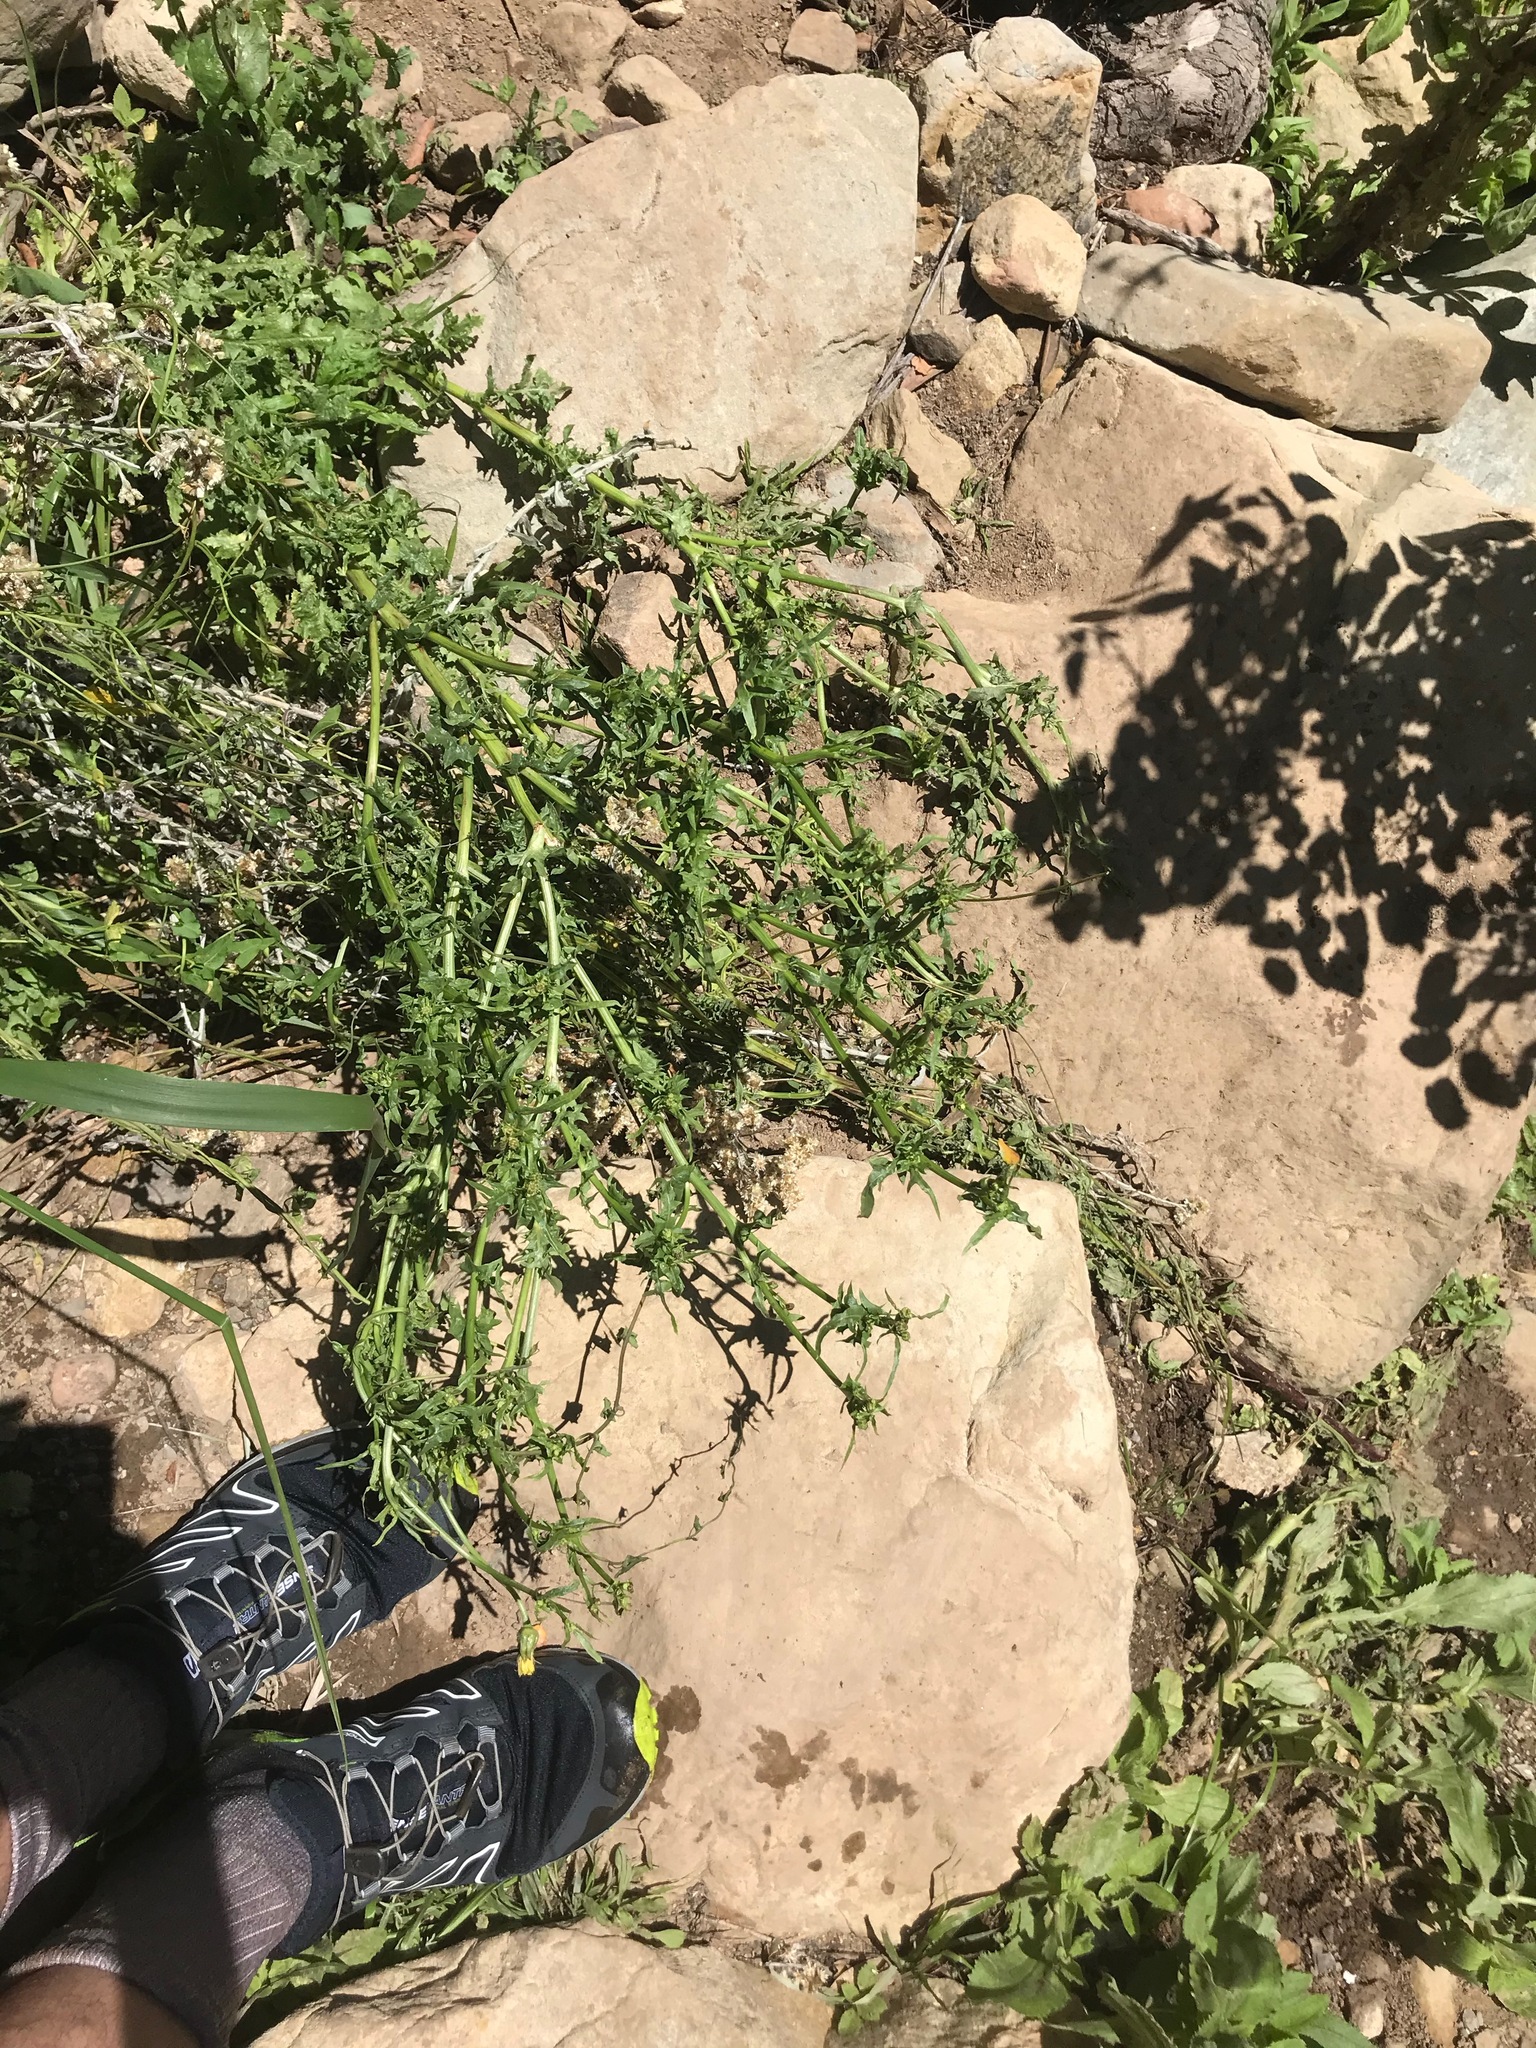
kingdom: Plantae
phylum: Tracheophyta
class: Magnoliopsida
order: Asterales
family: Asteraceae
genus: Urospermum
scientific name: Urospermum picroides
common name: False hawkbit
